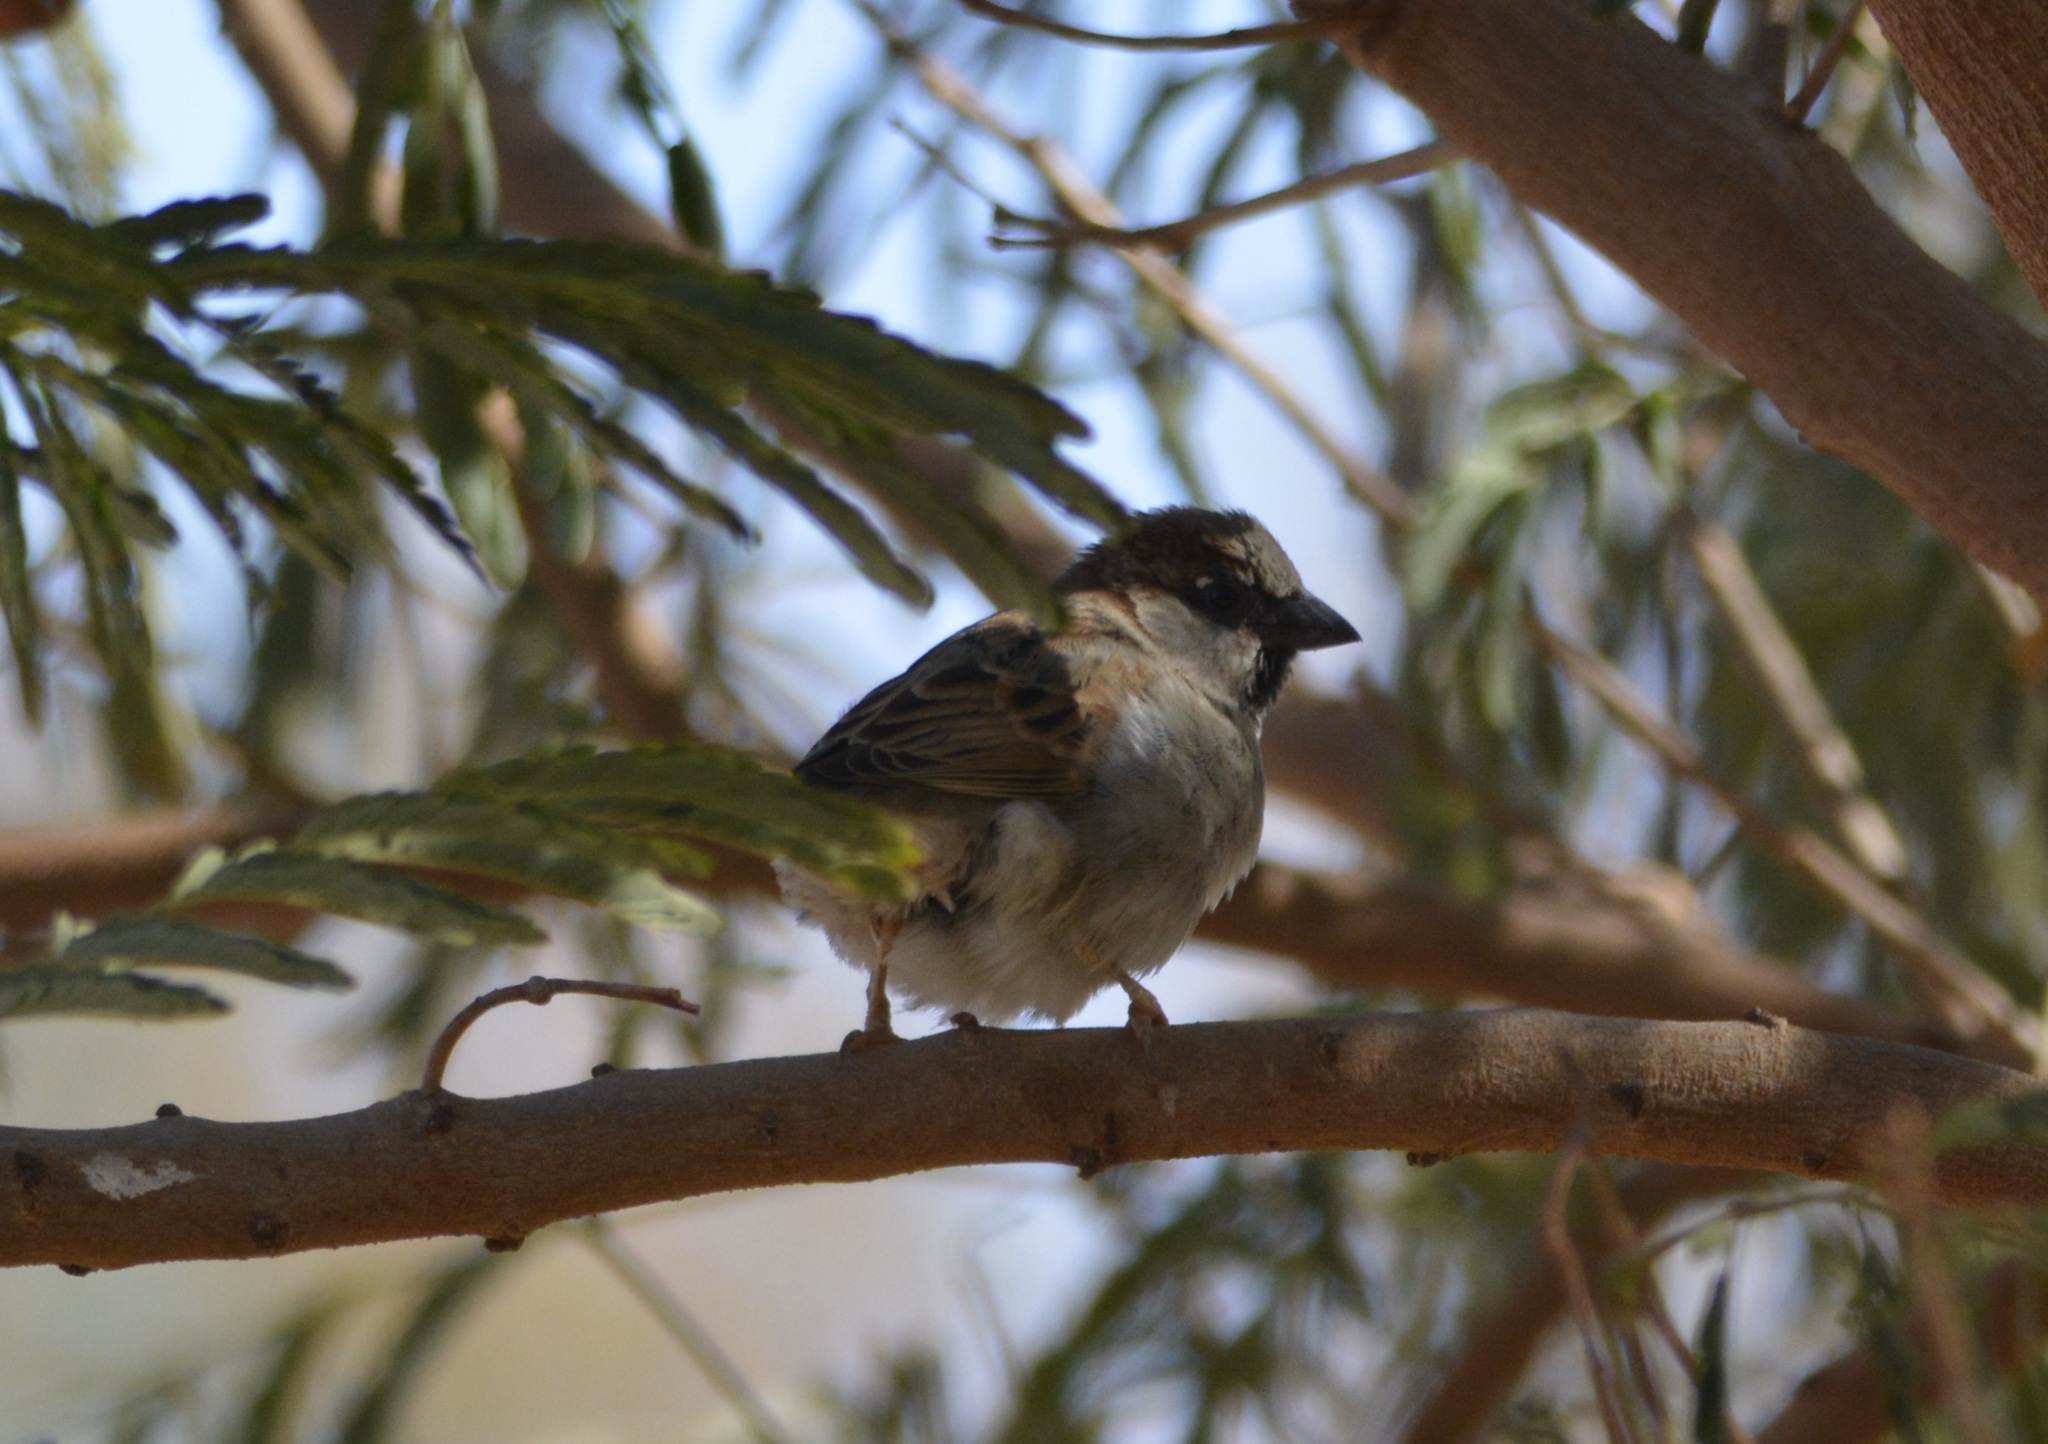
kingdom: Animalia
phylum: Chordata
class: Aves
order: Passeriformes
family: Passeridae
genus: Passer
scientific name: Passer domesticus
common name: House sparrow
